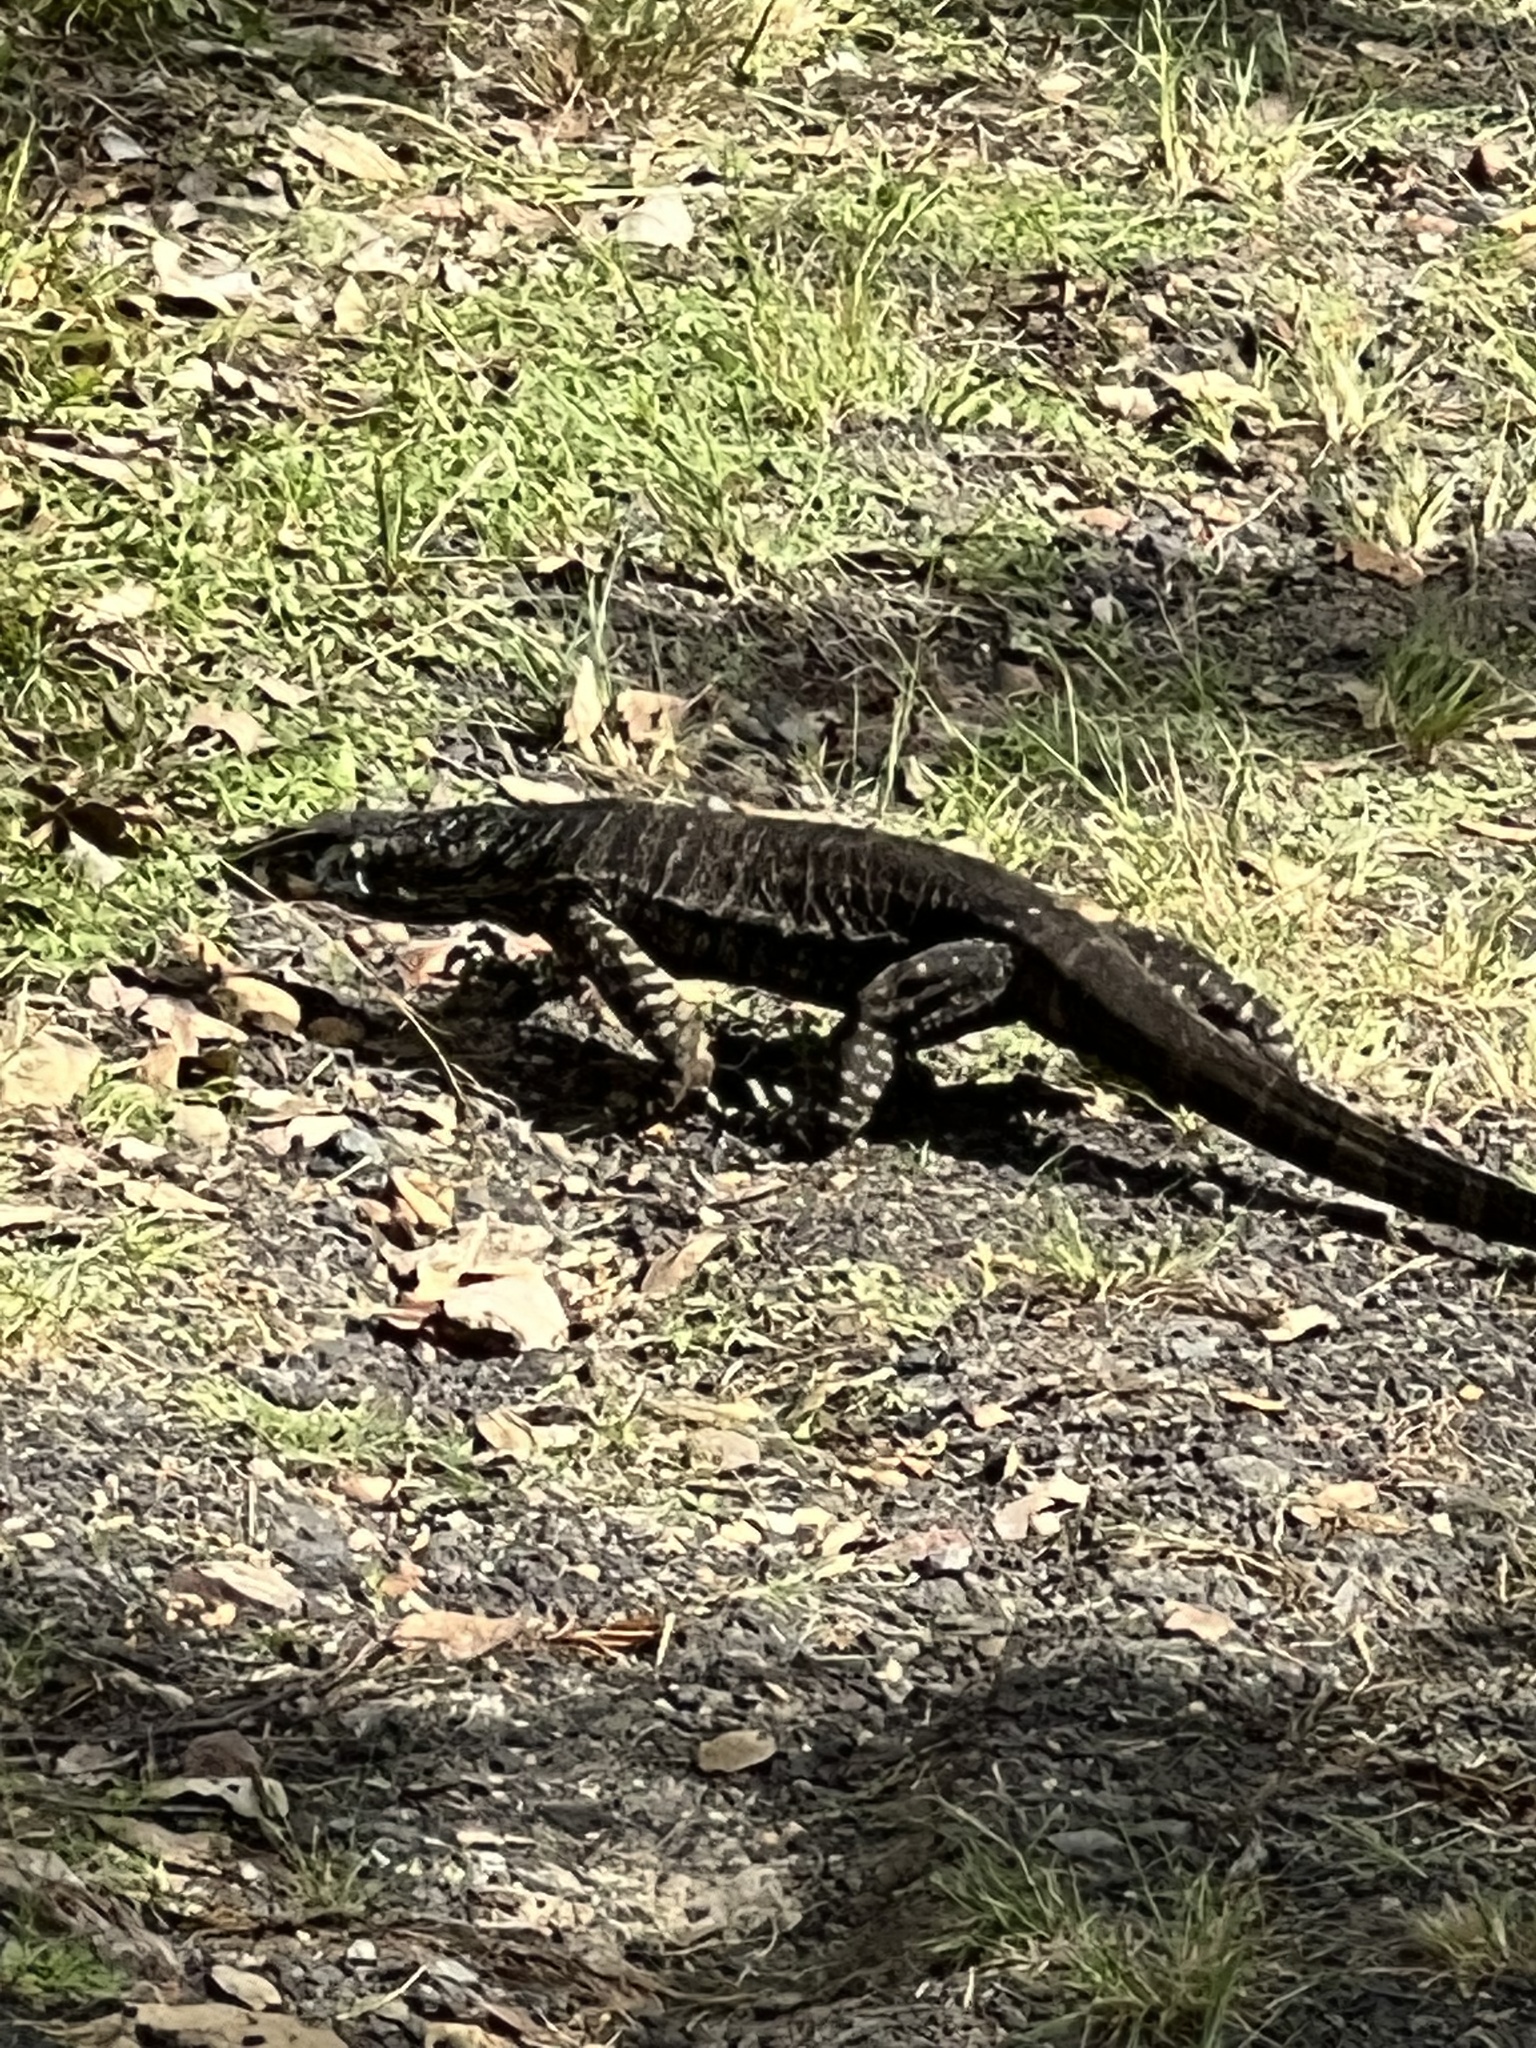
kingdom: Animalia
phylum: Chordata
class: Squamata
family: Varanidae
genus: Varanus
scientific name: Varanus varius
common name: Lace monitor
